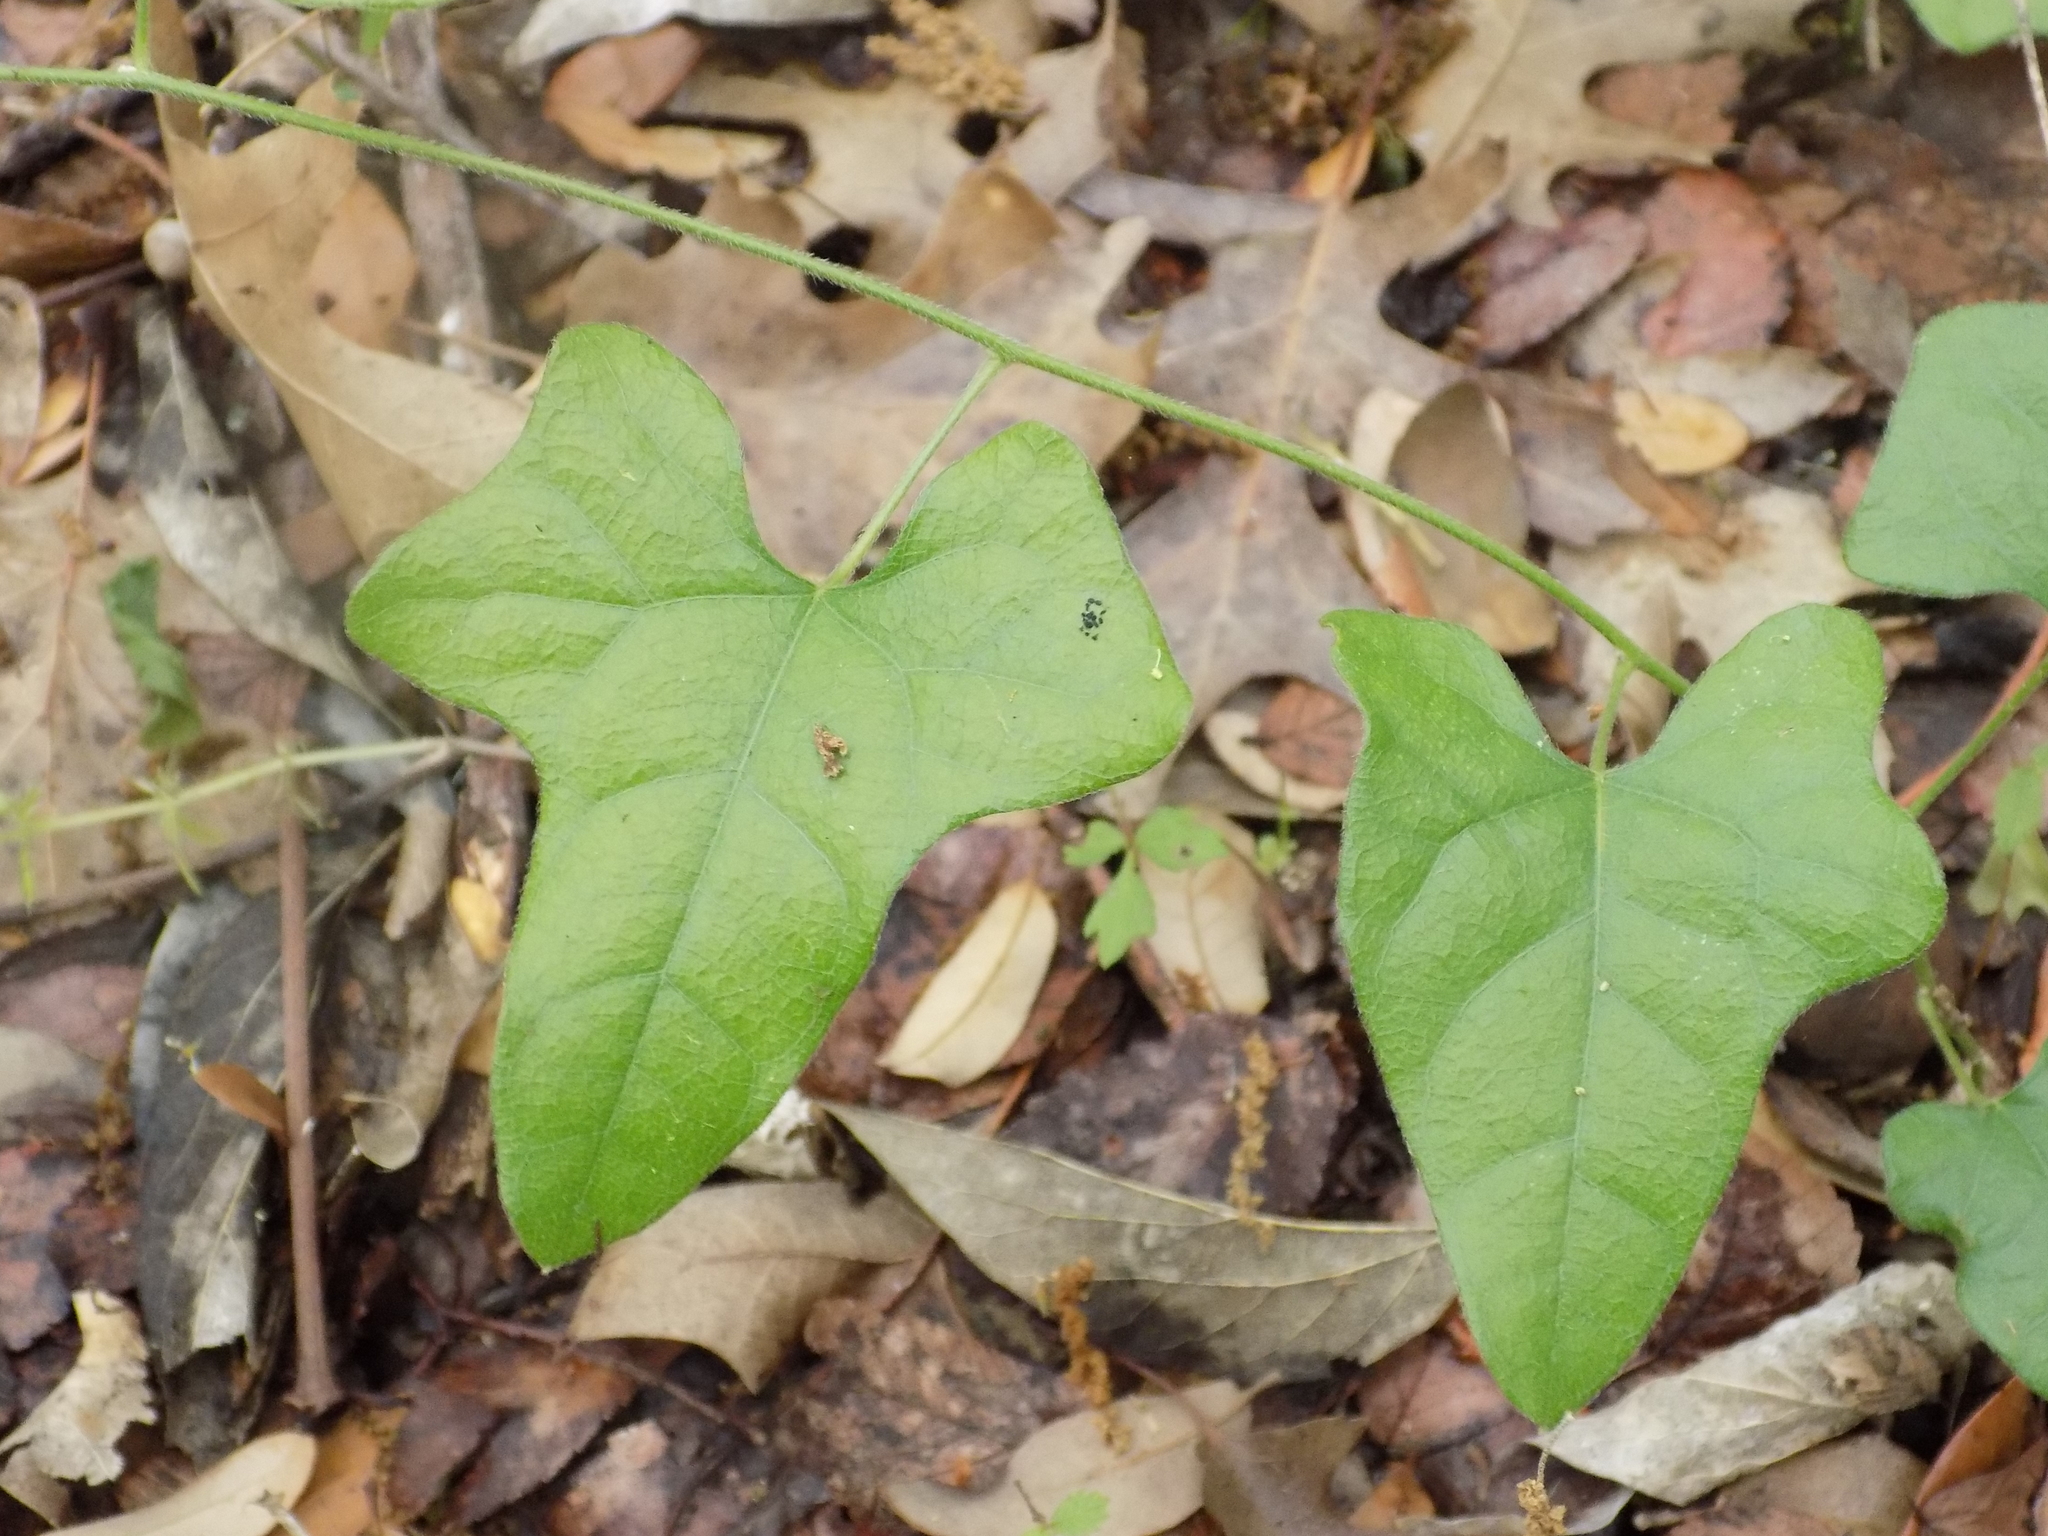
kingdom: Plantae
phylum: Tracheophyta
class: Magnoliopsida
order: Ranunculales
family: Menispermaceae
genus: Cocculus
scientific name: Cocculus carolinus
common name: Carolina moonseed
